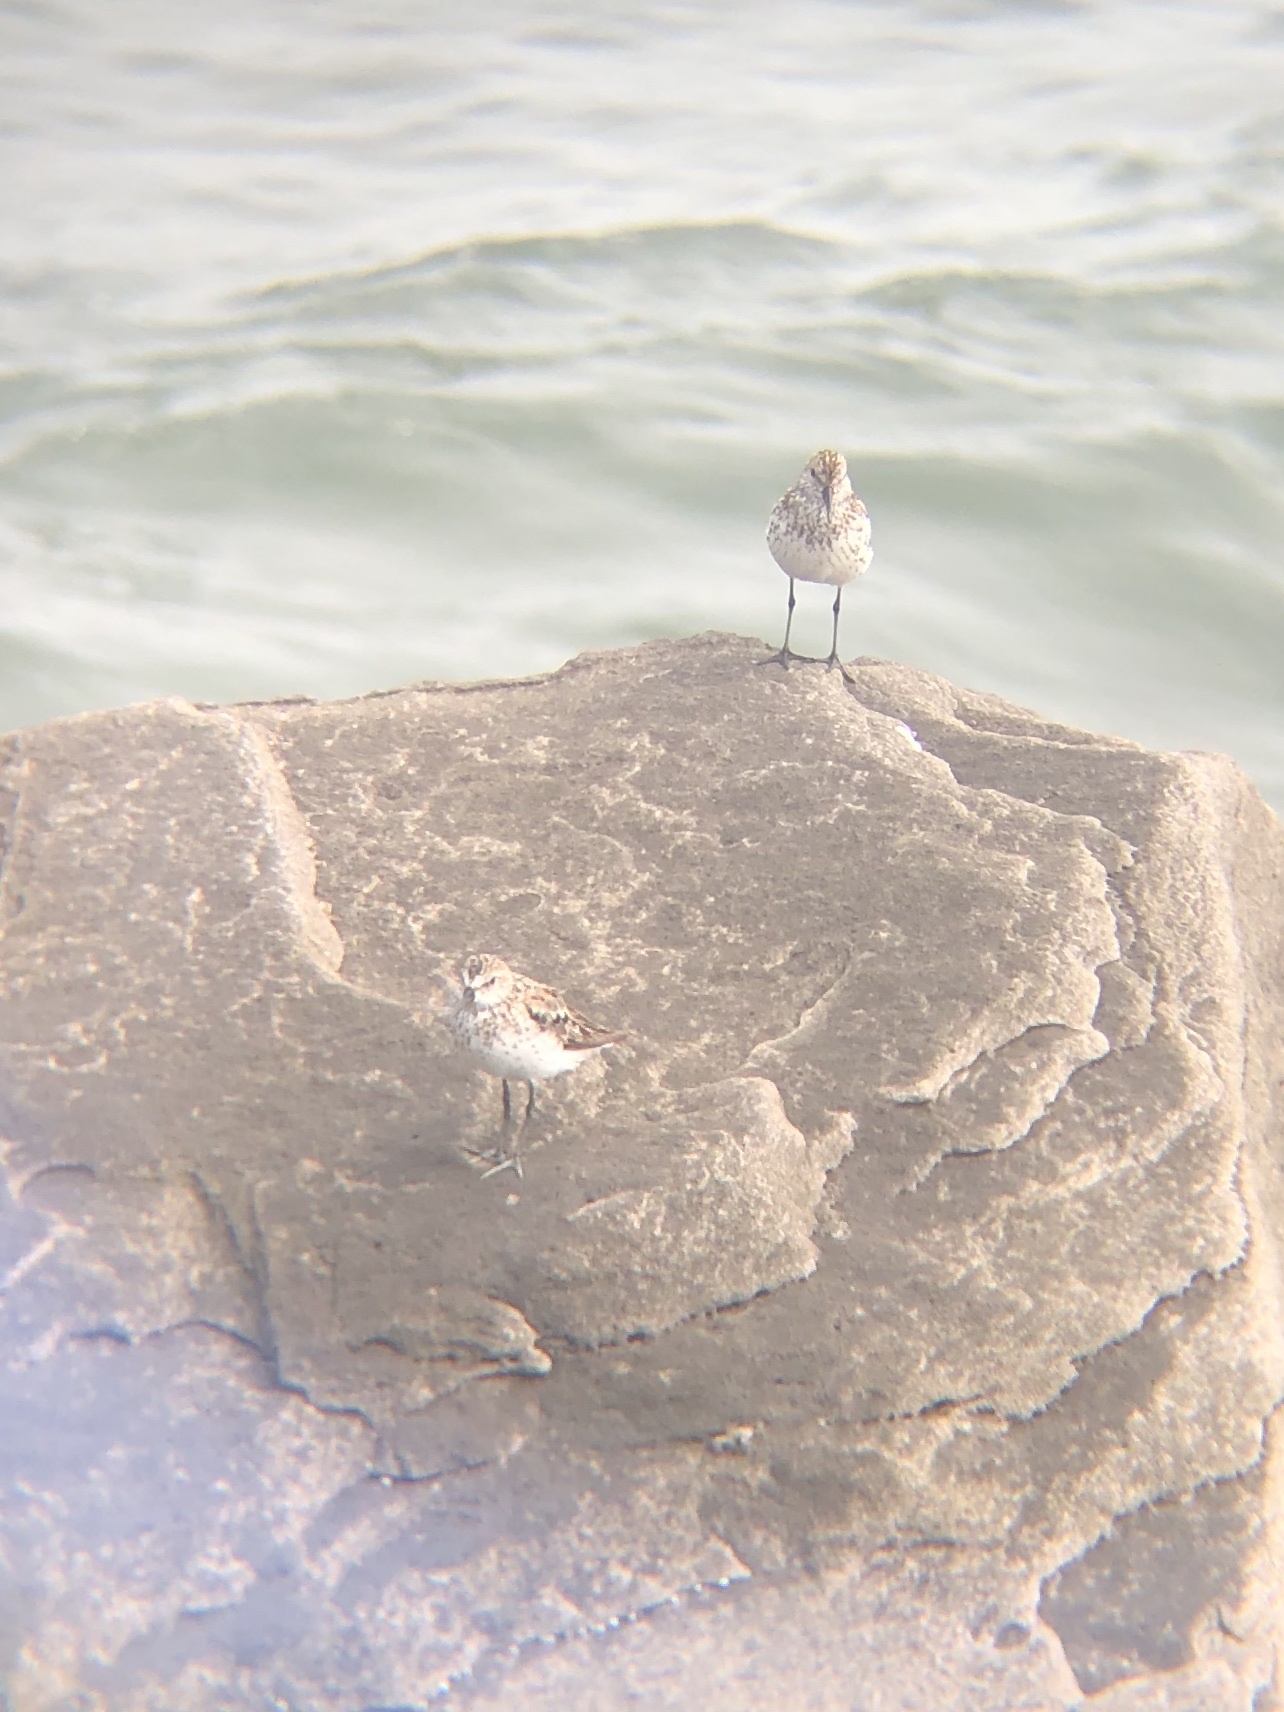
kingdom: Animalia
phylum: Chordata
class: Aves
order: Charadriiformes
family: Scolopacidae
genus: Calidris
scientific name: Calidris mauri
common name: Western sandpiper
